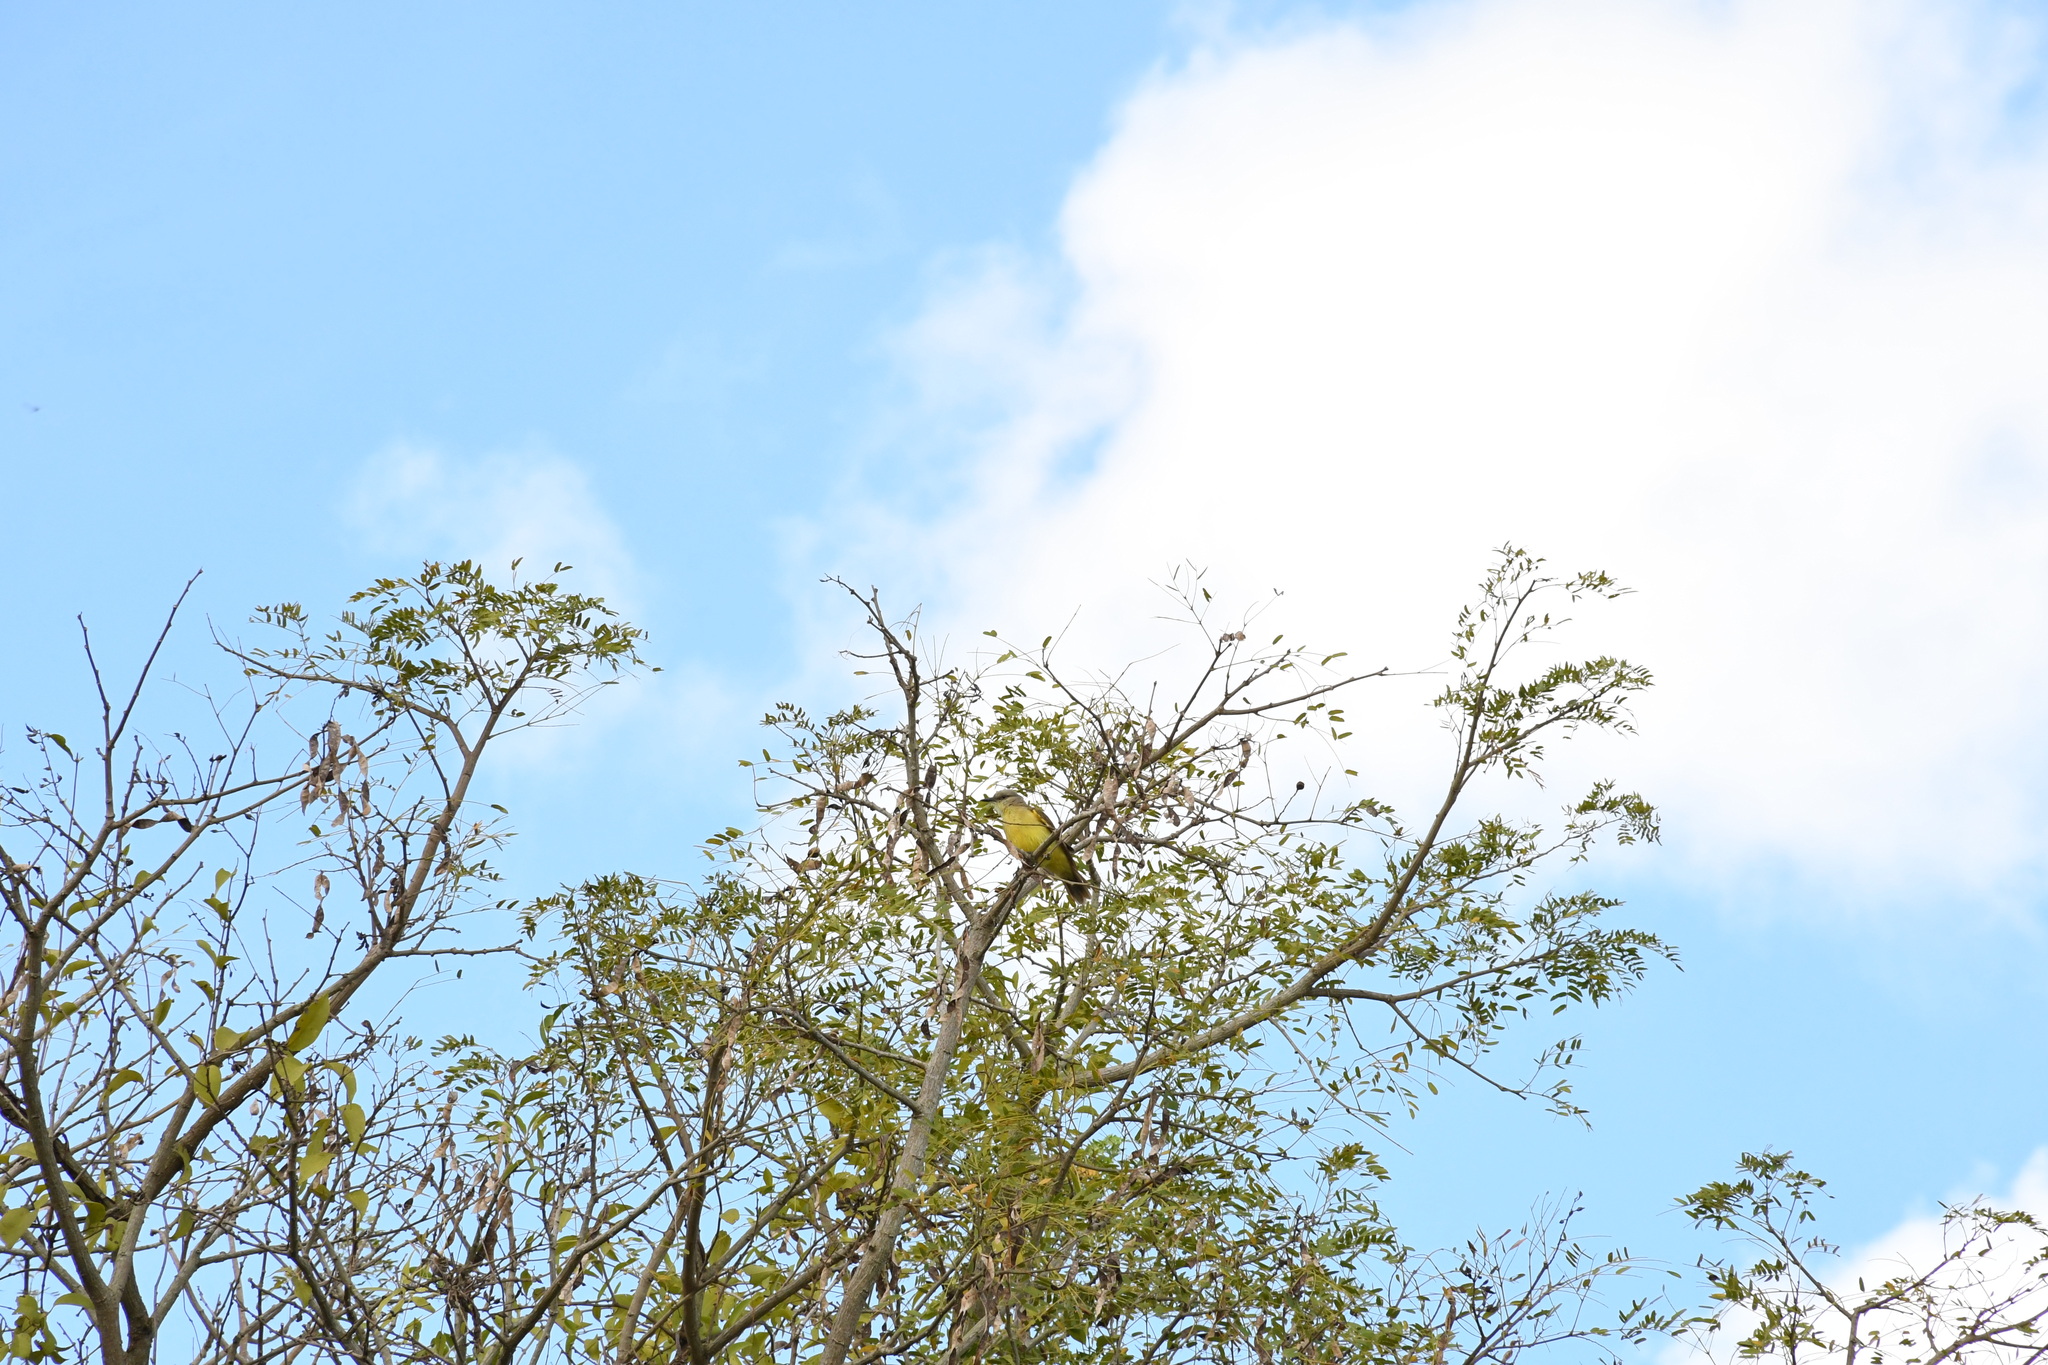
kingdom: Animalia
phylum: Chordata
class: Aves
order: Passeriformes
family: Tyrannidae
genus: Machetornis
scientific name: Machetornis rixosa
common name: Cattle tyrant
